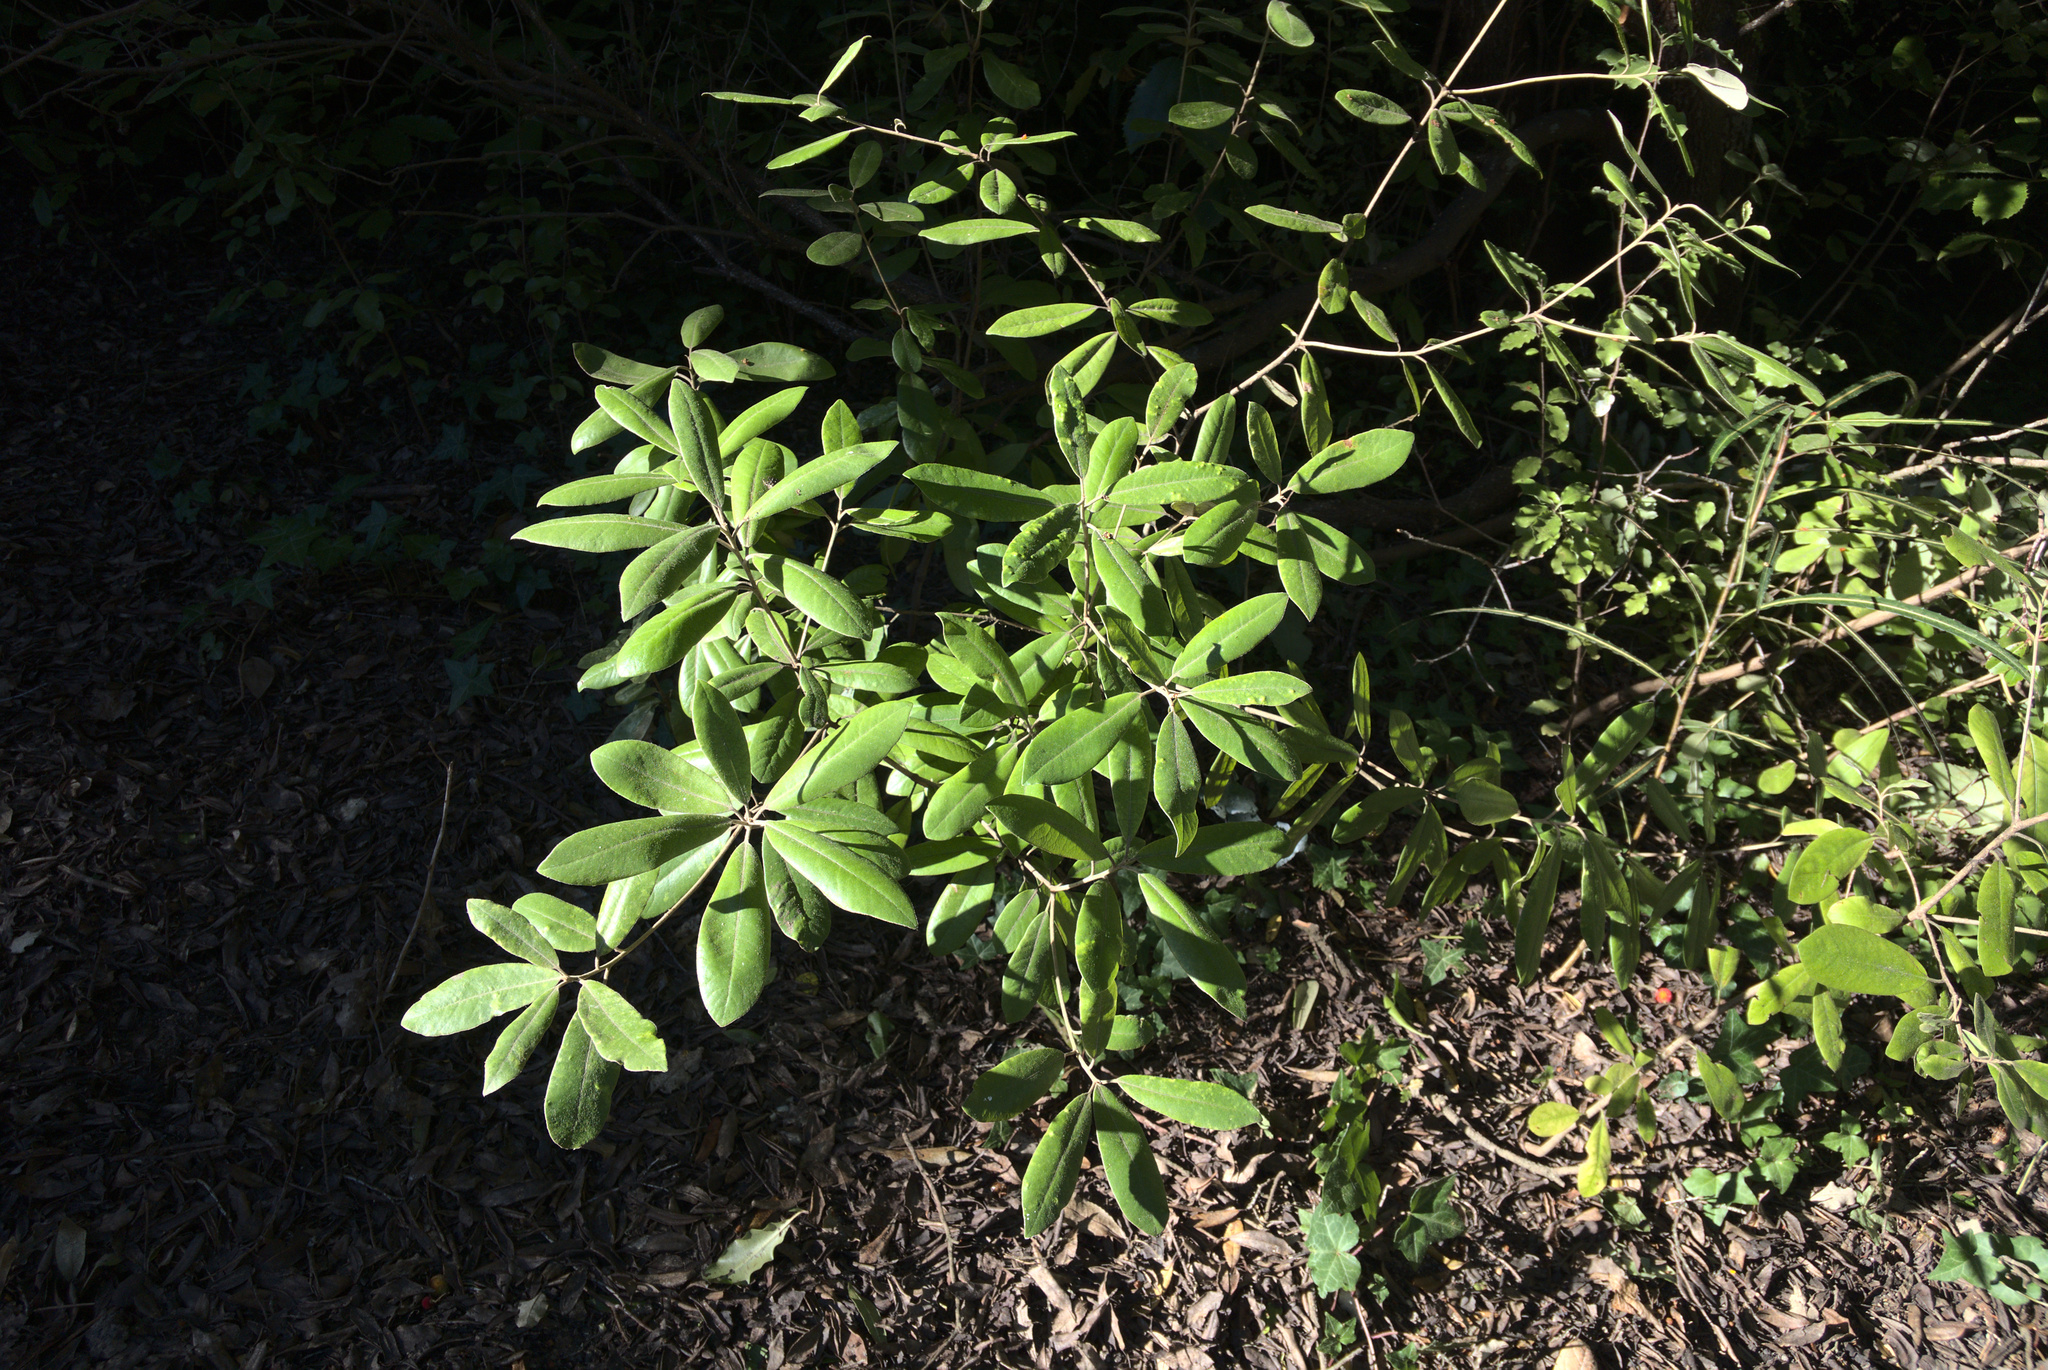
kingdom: Plantae
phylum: Tracheophyta
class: Magnoliopsida
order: Apiales
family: Pittosporaceae
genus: Pittosporum
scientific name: Pittosporum ralphii
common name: Ralph's desertwillow
